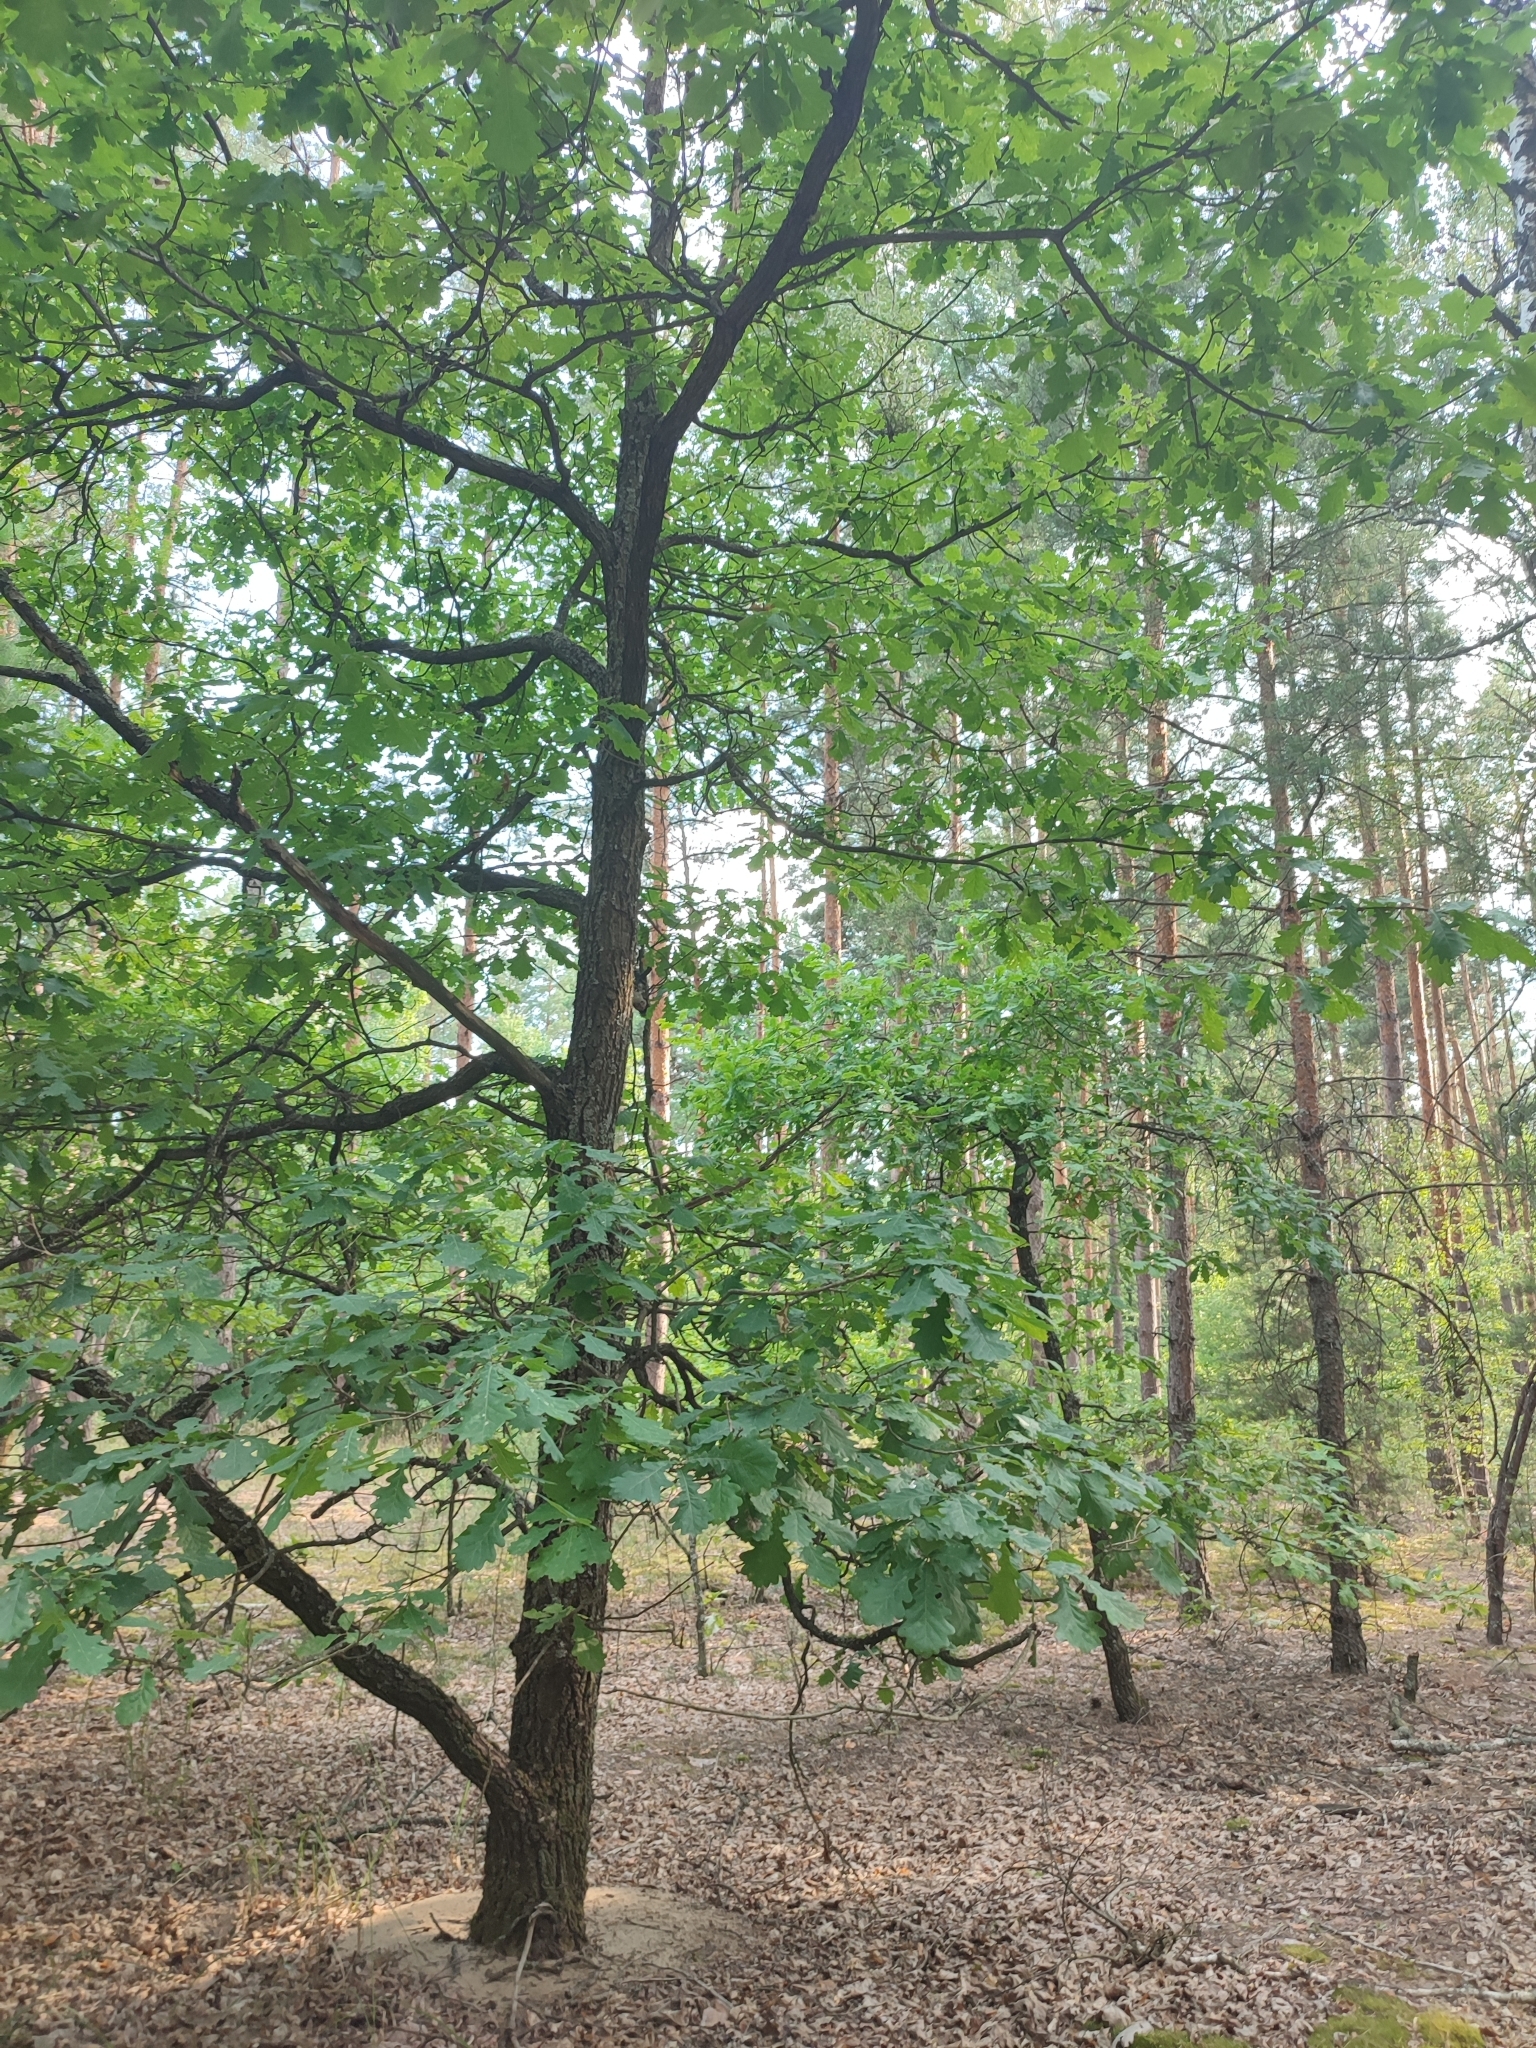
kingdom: Plantae
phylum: Tracheophyta
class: Magnoliopsida
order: Fagales
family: Fagaceae
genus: Quercus
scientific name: Quercus robur
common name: Pedunculate oak
